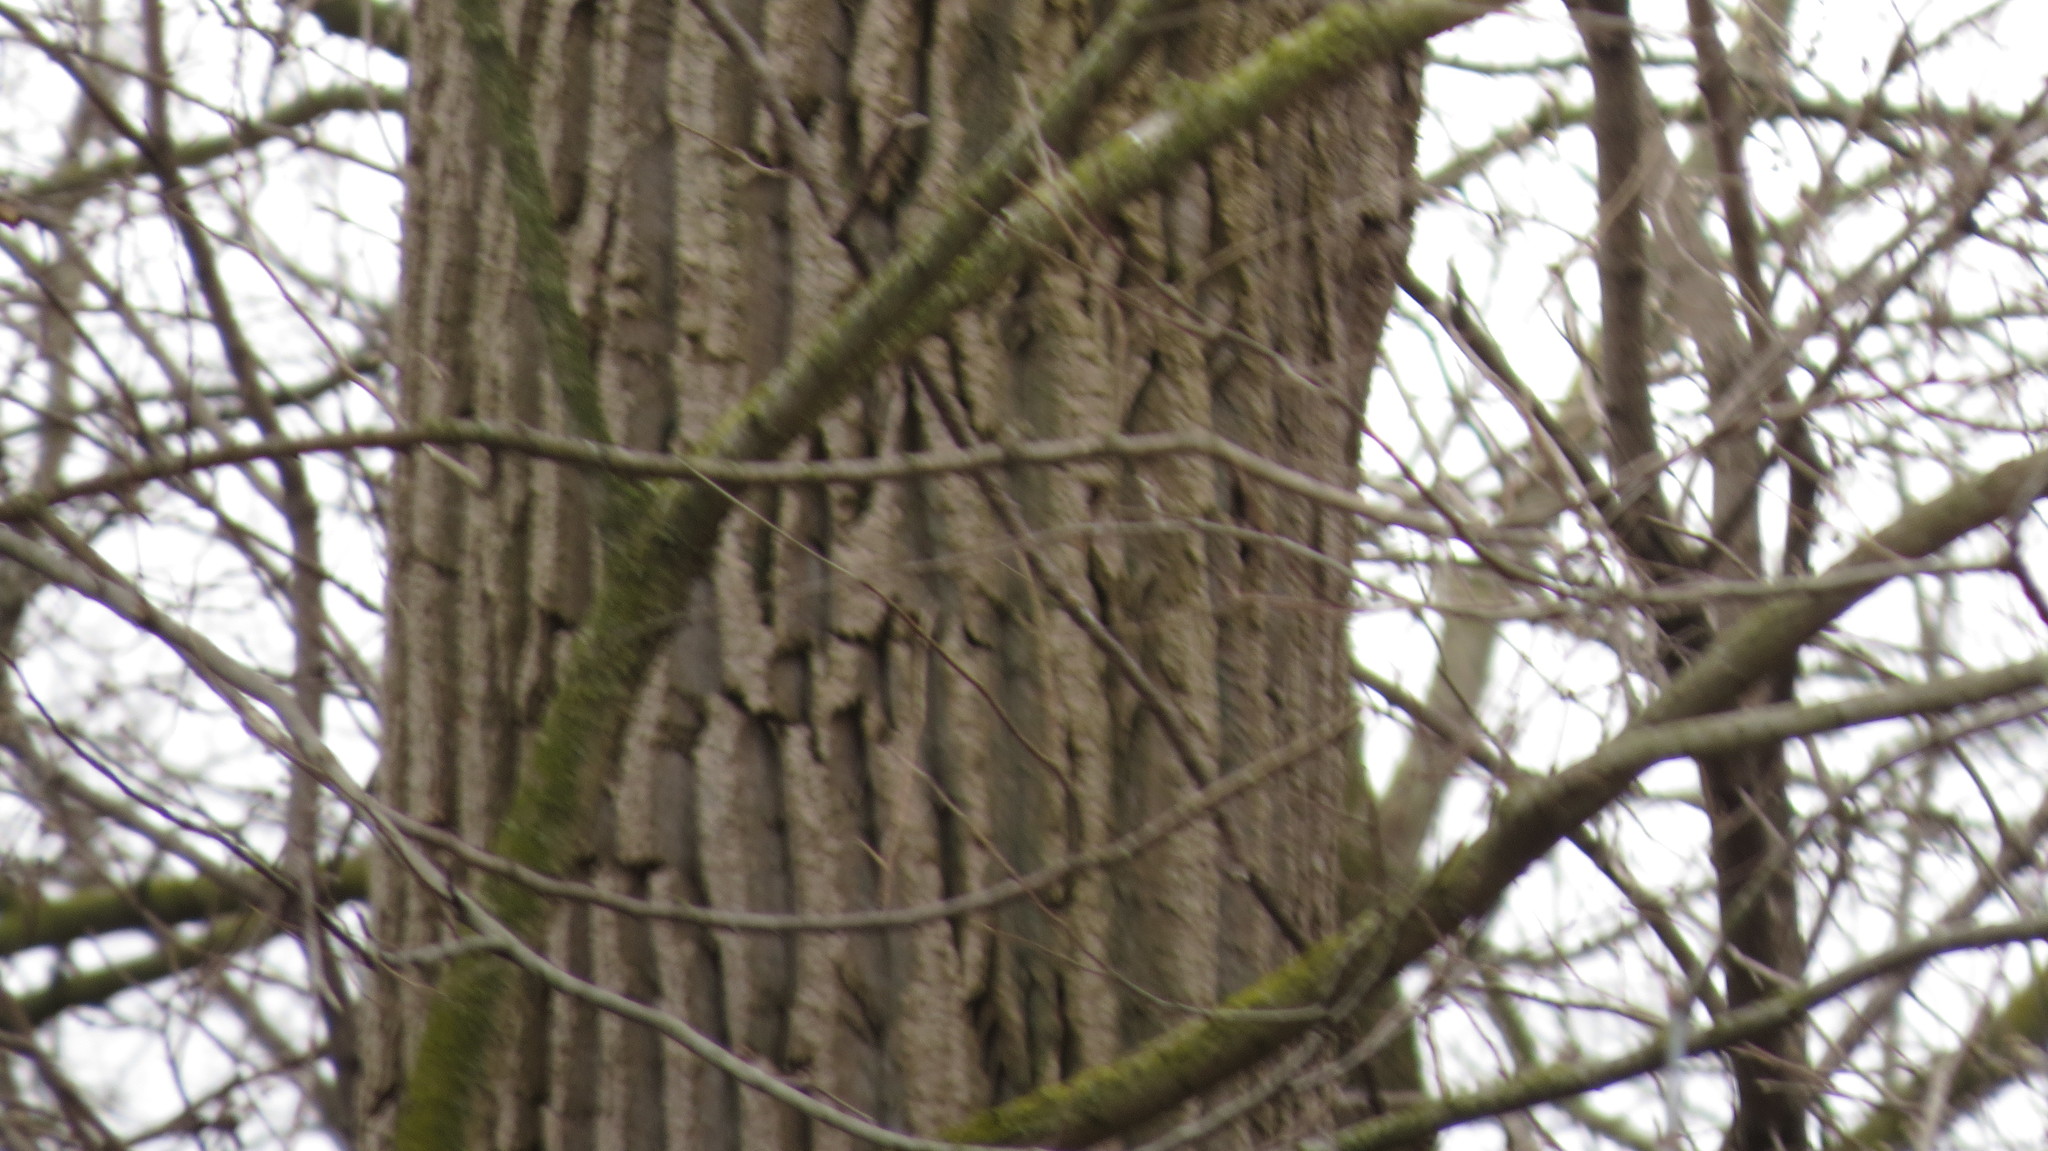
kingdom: Plantae
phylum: Tracheophyta
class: Magnoliopsida
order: Malpighiales
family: Salicaceae
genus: Populus
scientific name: Populus deltoides
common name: Eastern cottonwood
